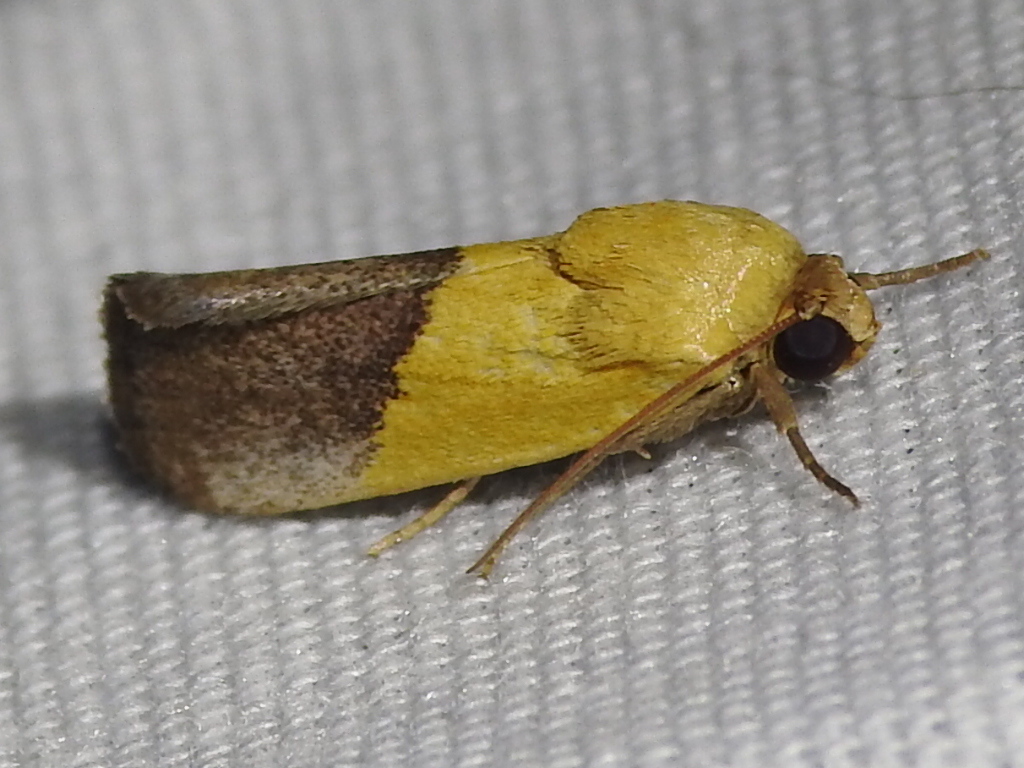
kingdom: Animalia
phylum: Arthropoda
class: Insecta
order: Lepidoptera
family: Noctuidae
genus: Acontia
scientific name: Acontia semiflava
